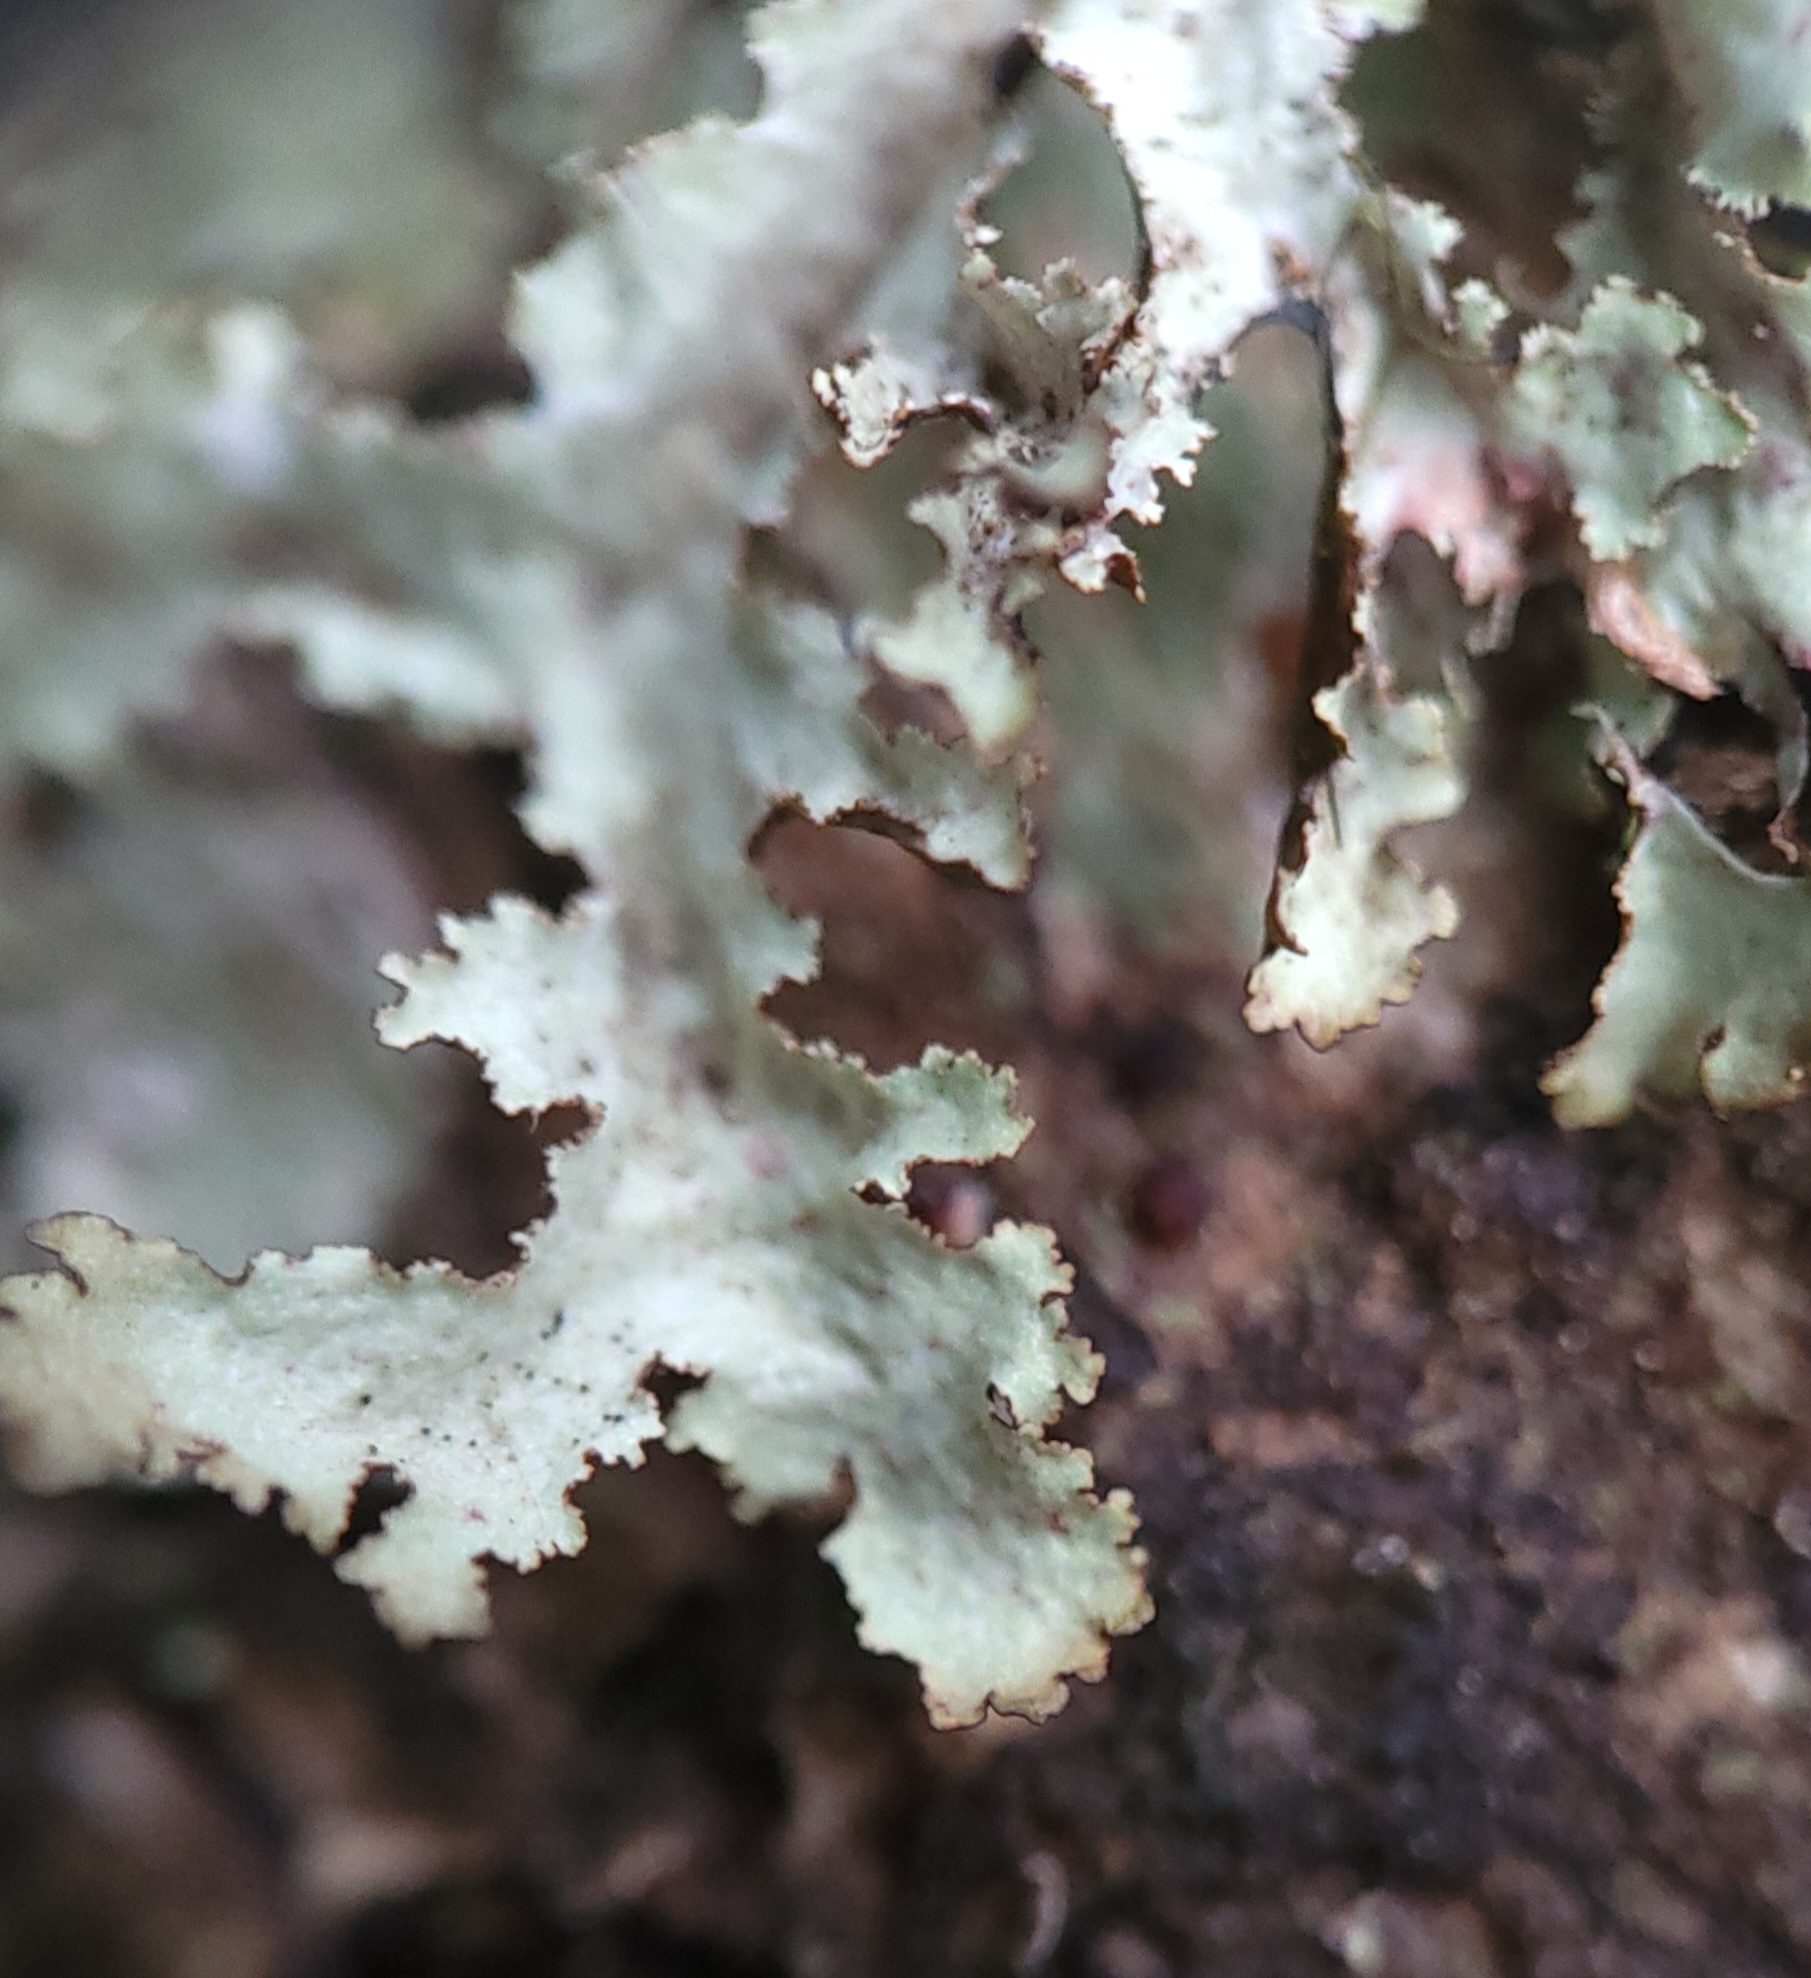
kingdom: Fungi
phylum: Ascomycota
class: Lecanoromycetes
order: Lecanorales
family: Parmeliaceae
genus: Platismatia
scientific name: Platismatia stenophylla
